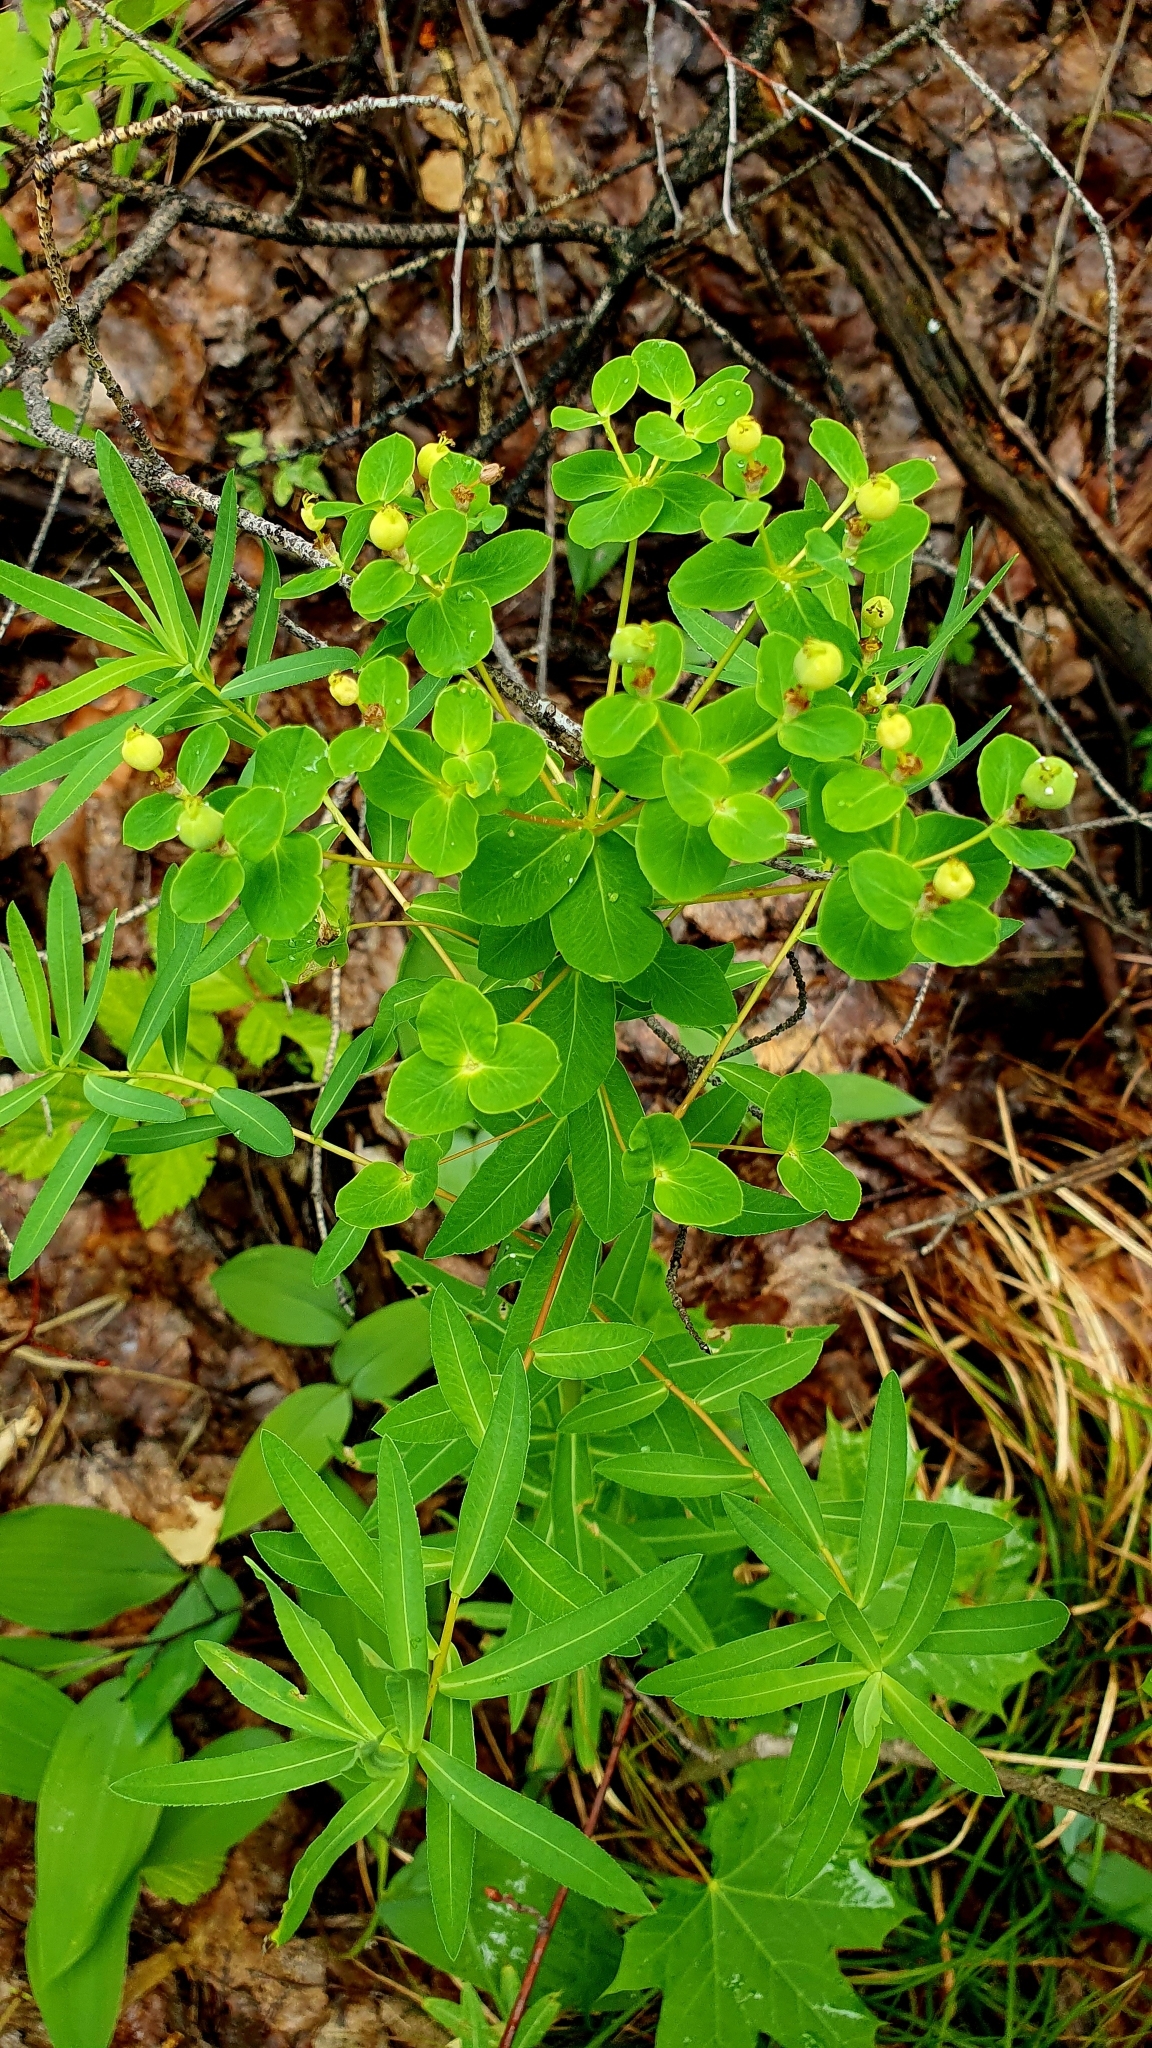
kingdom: Plantae
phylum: Tracheophyta
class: Magnoliopsida
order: Malpighiales
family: Euphorbiaceae
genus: Euphorbia
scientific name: Euphorbia semivillosa
